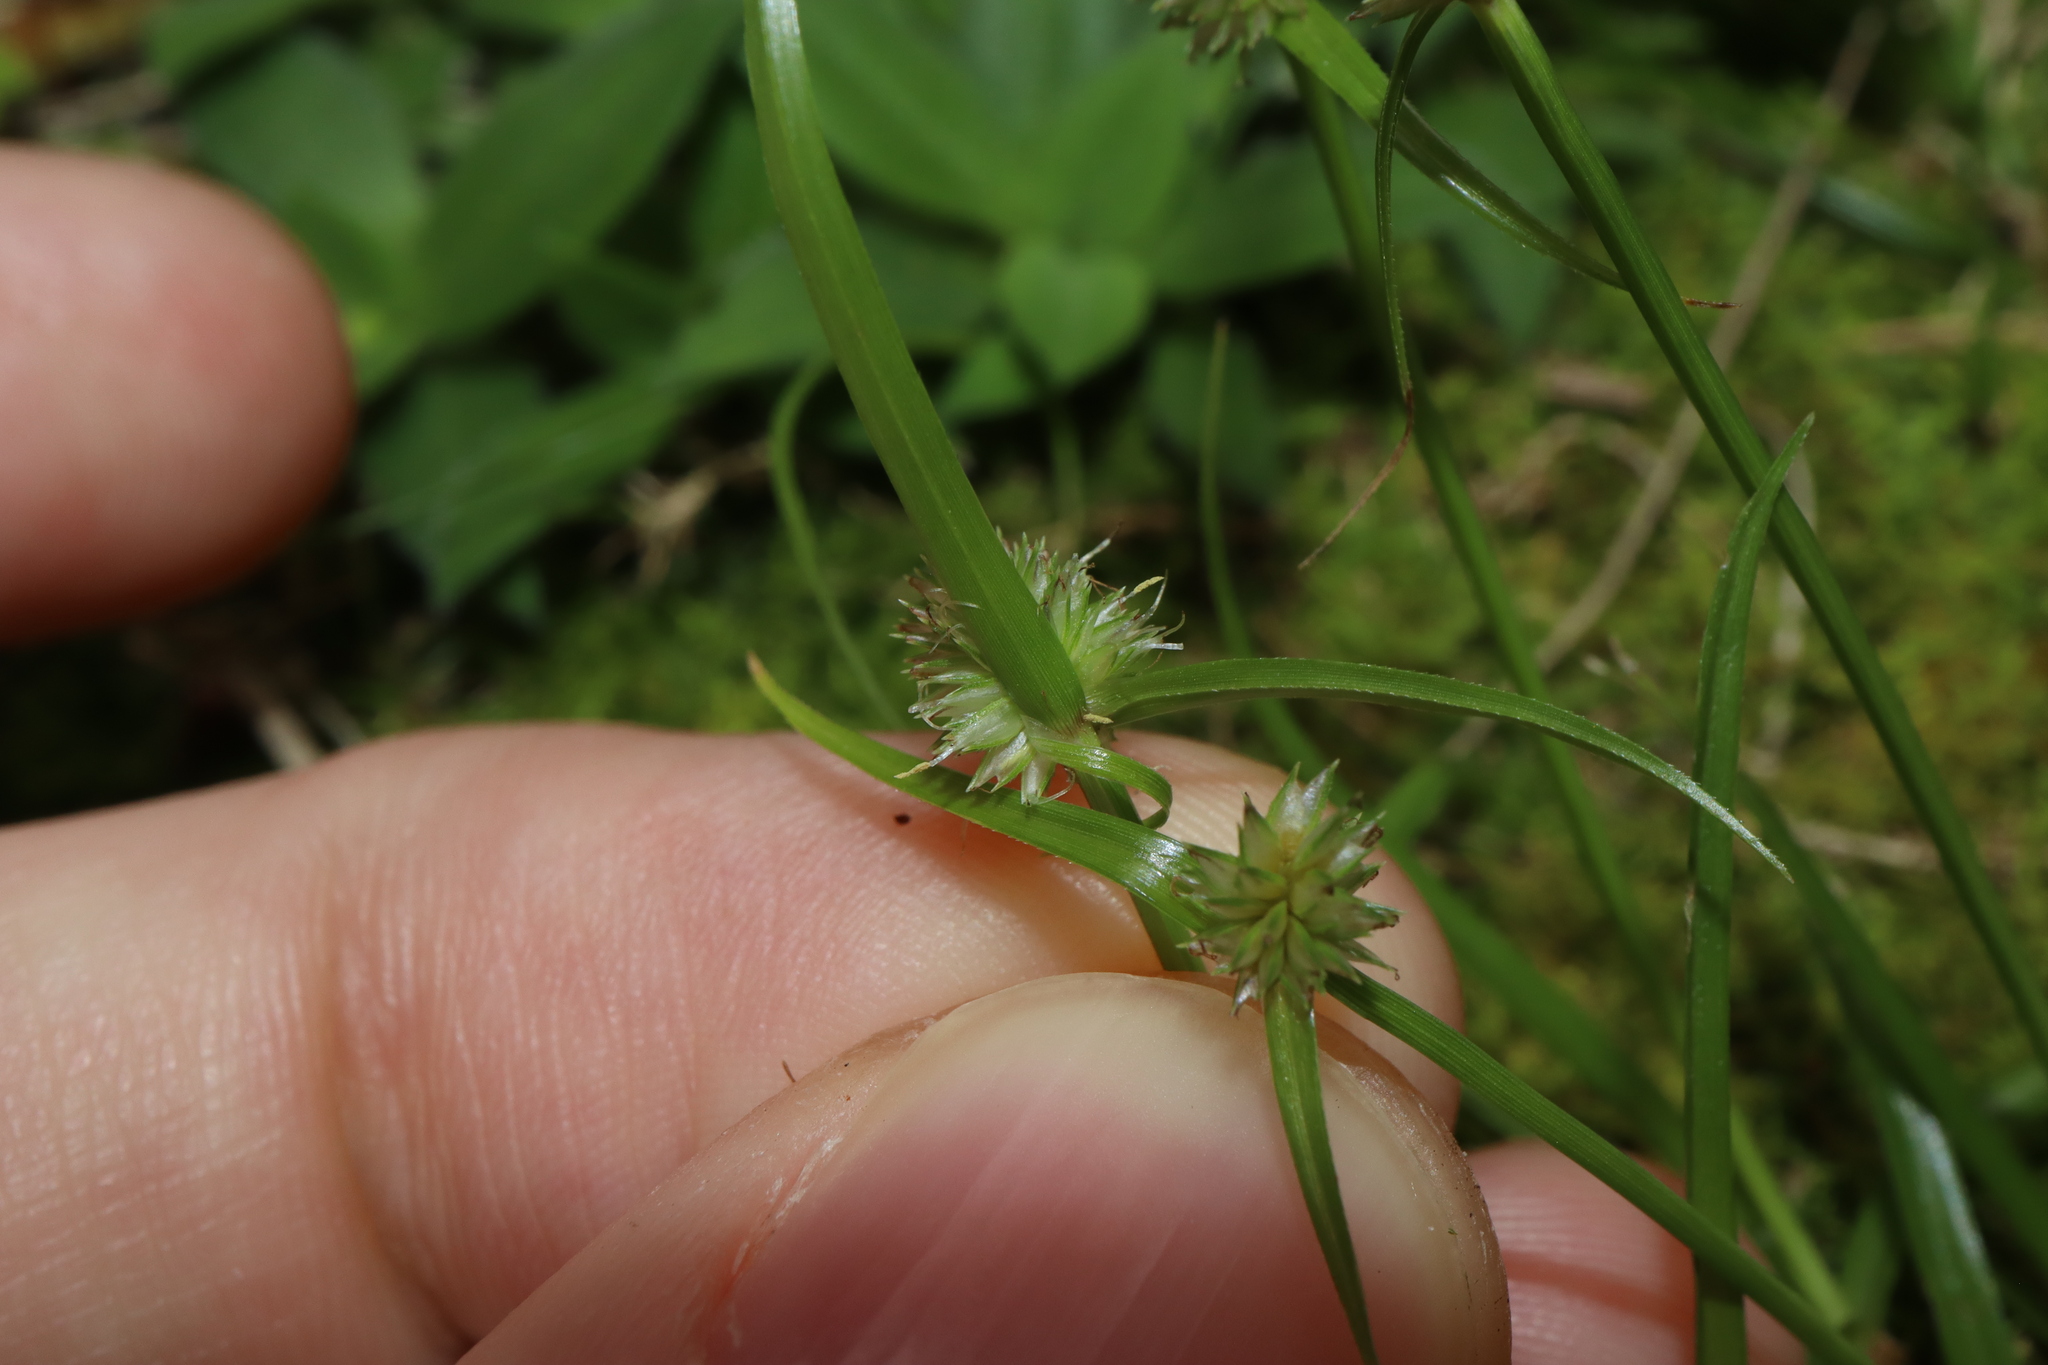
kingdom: Plantae
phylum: Tracheophyta
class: Liliopsida
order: Poales
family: Cyperaceae
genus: Cyperus
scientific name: Cyperus brevifolius
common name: Globe kyllinga
